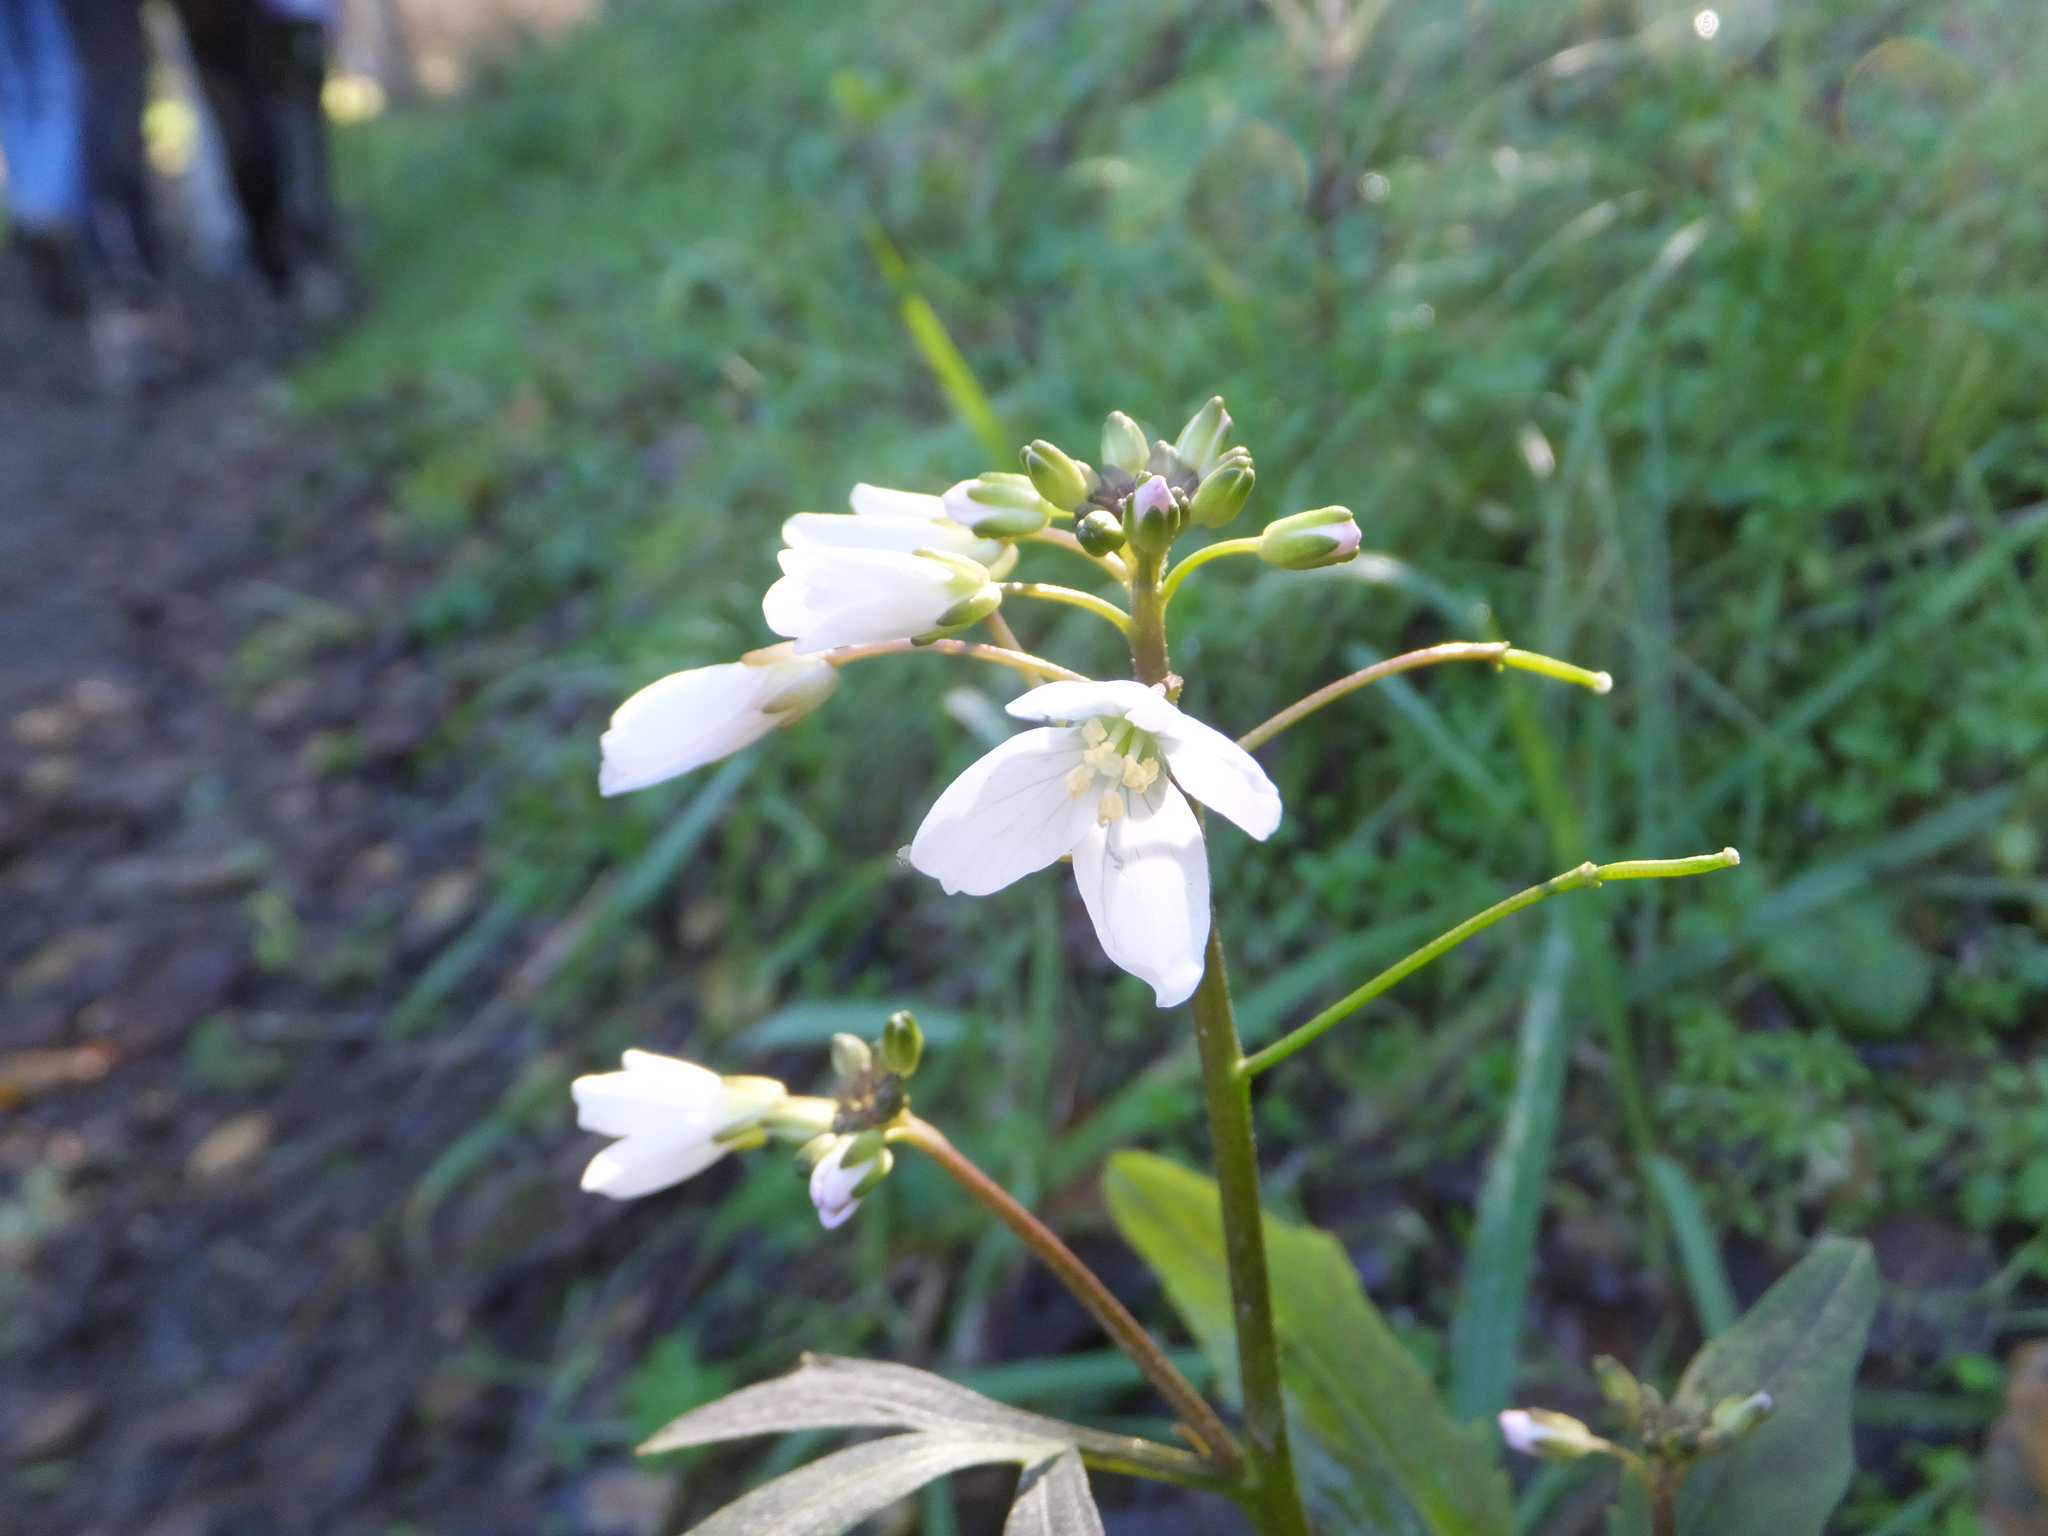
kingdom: Plantae
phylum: Tracheophyta
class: Magnoliopsida
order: Brassicales
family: Brassicaceae
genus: Cardamine
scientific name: Cardamine californica
